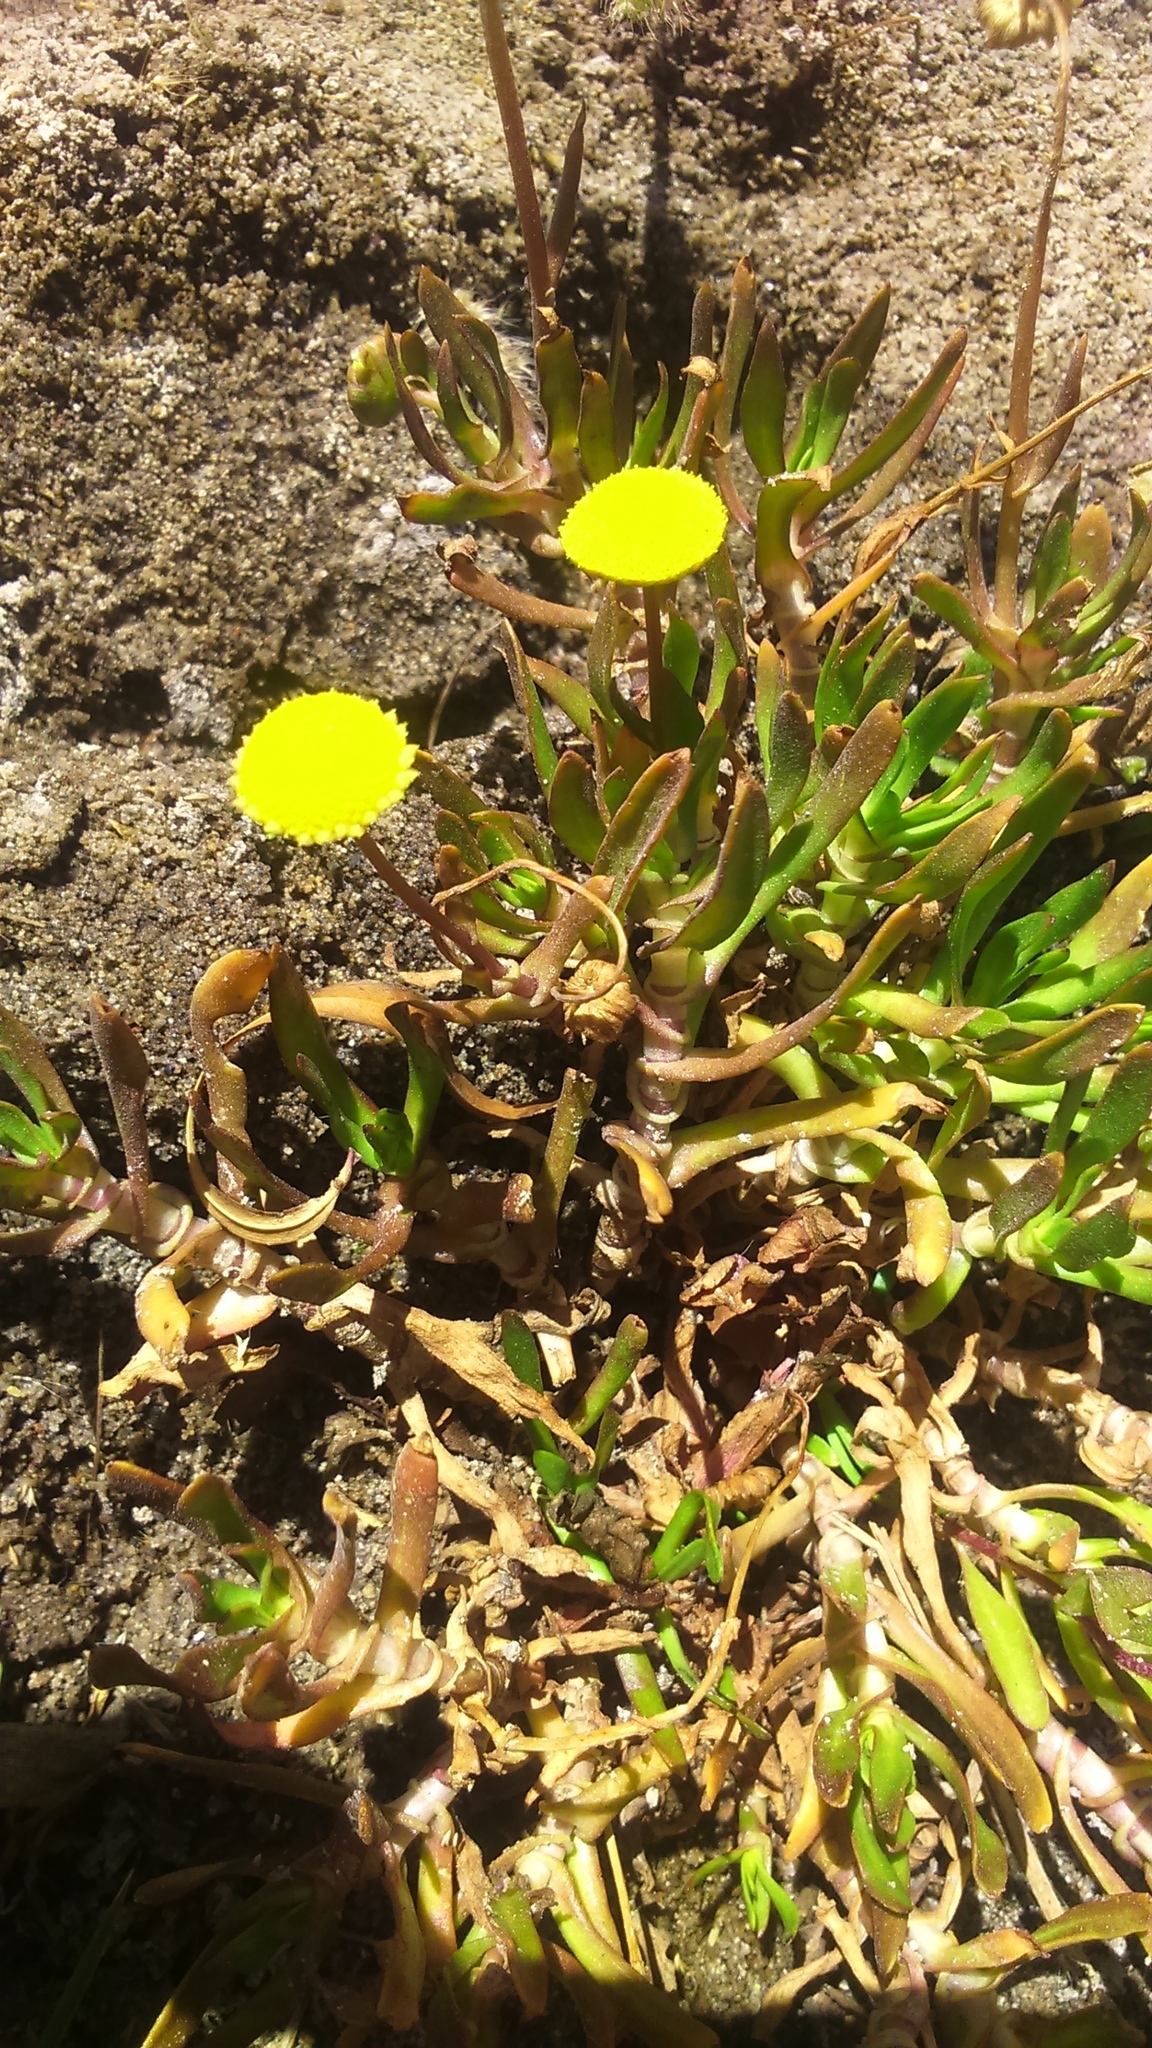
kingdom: Plantae
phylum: Tracheophyta
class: Magnoliopsida
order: Asterales
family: Asteraceae
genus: Cotula
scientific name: Cotula coronopifolia
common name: Buttonweed
